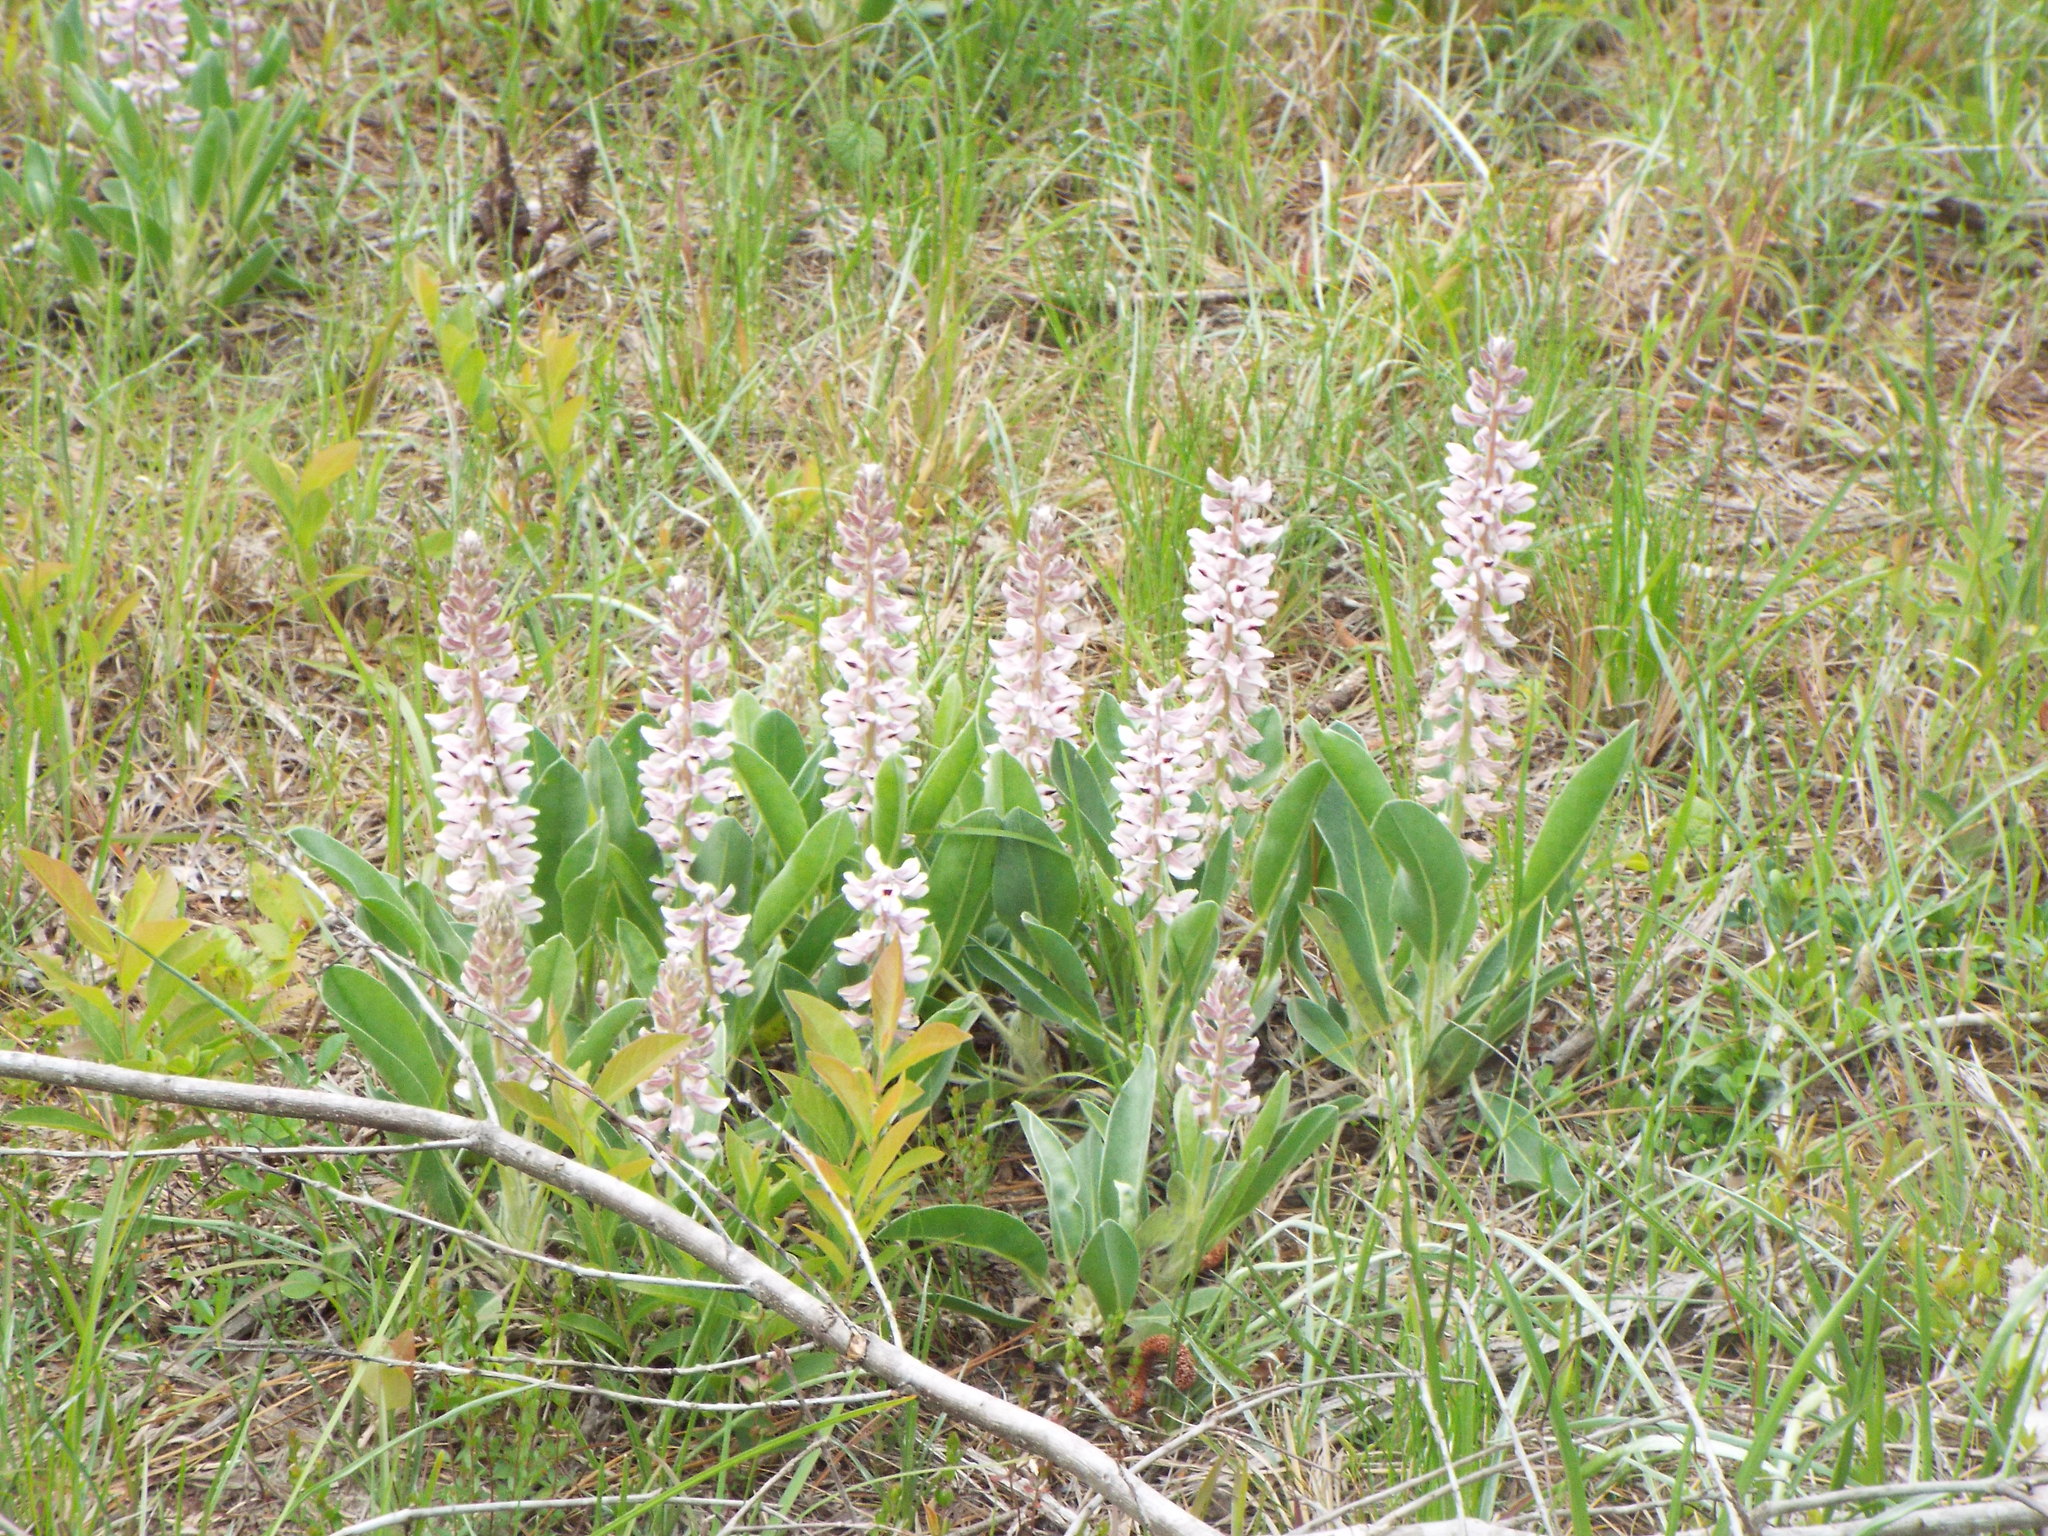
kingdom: Plantae
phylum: Tracheophyta
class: Magnoliopsida
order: Fabales
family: Fabaceae
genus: Lupinus
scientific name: Lupinus villosus
